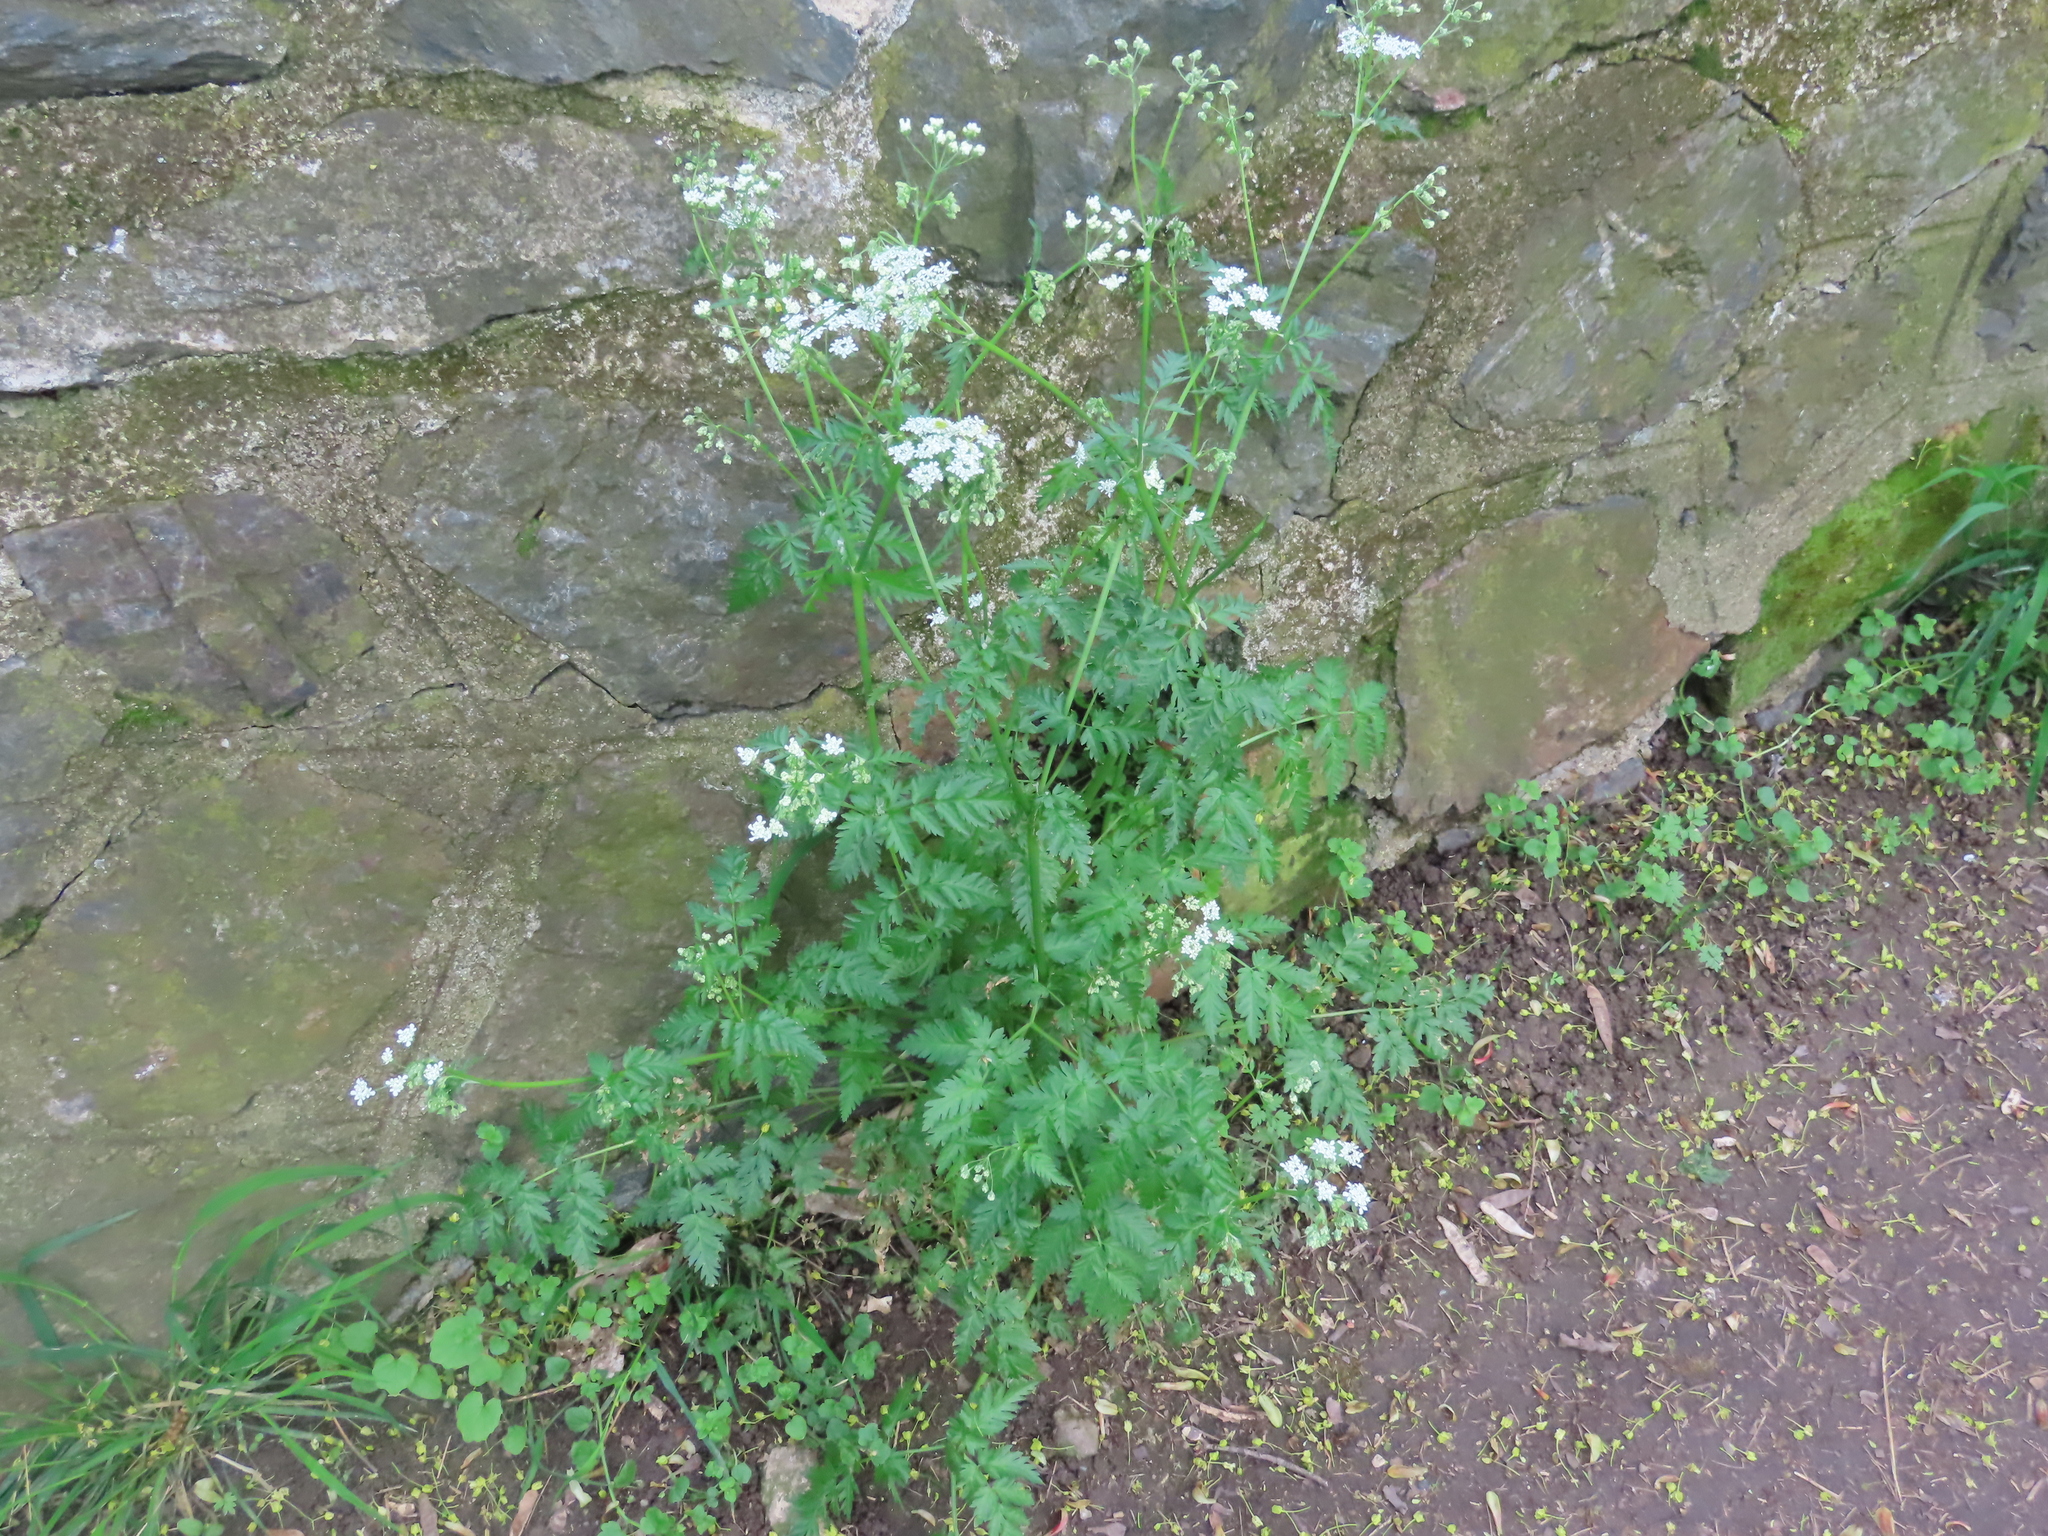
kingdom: Plantae
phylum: Tracheophyta
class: Magnoliopsida
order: Apiales
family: Apiaceae
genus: Anthriscus
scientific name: Anthriscus sylvestris
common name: Cow parsley
